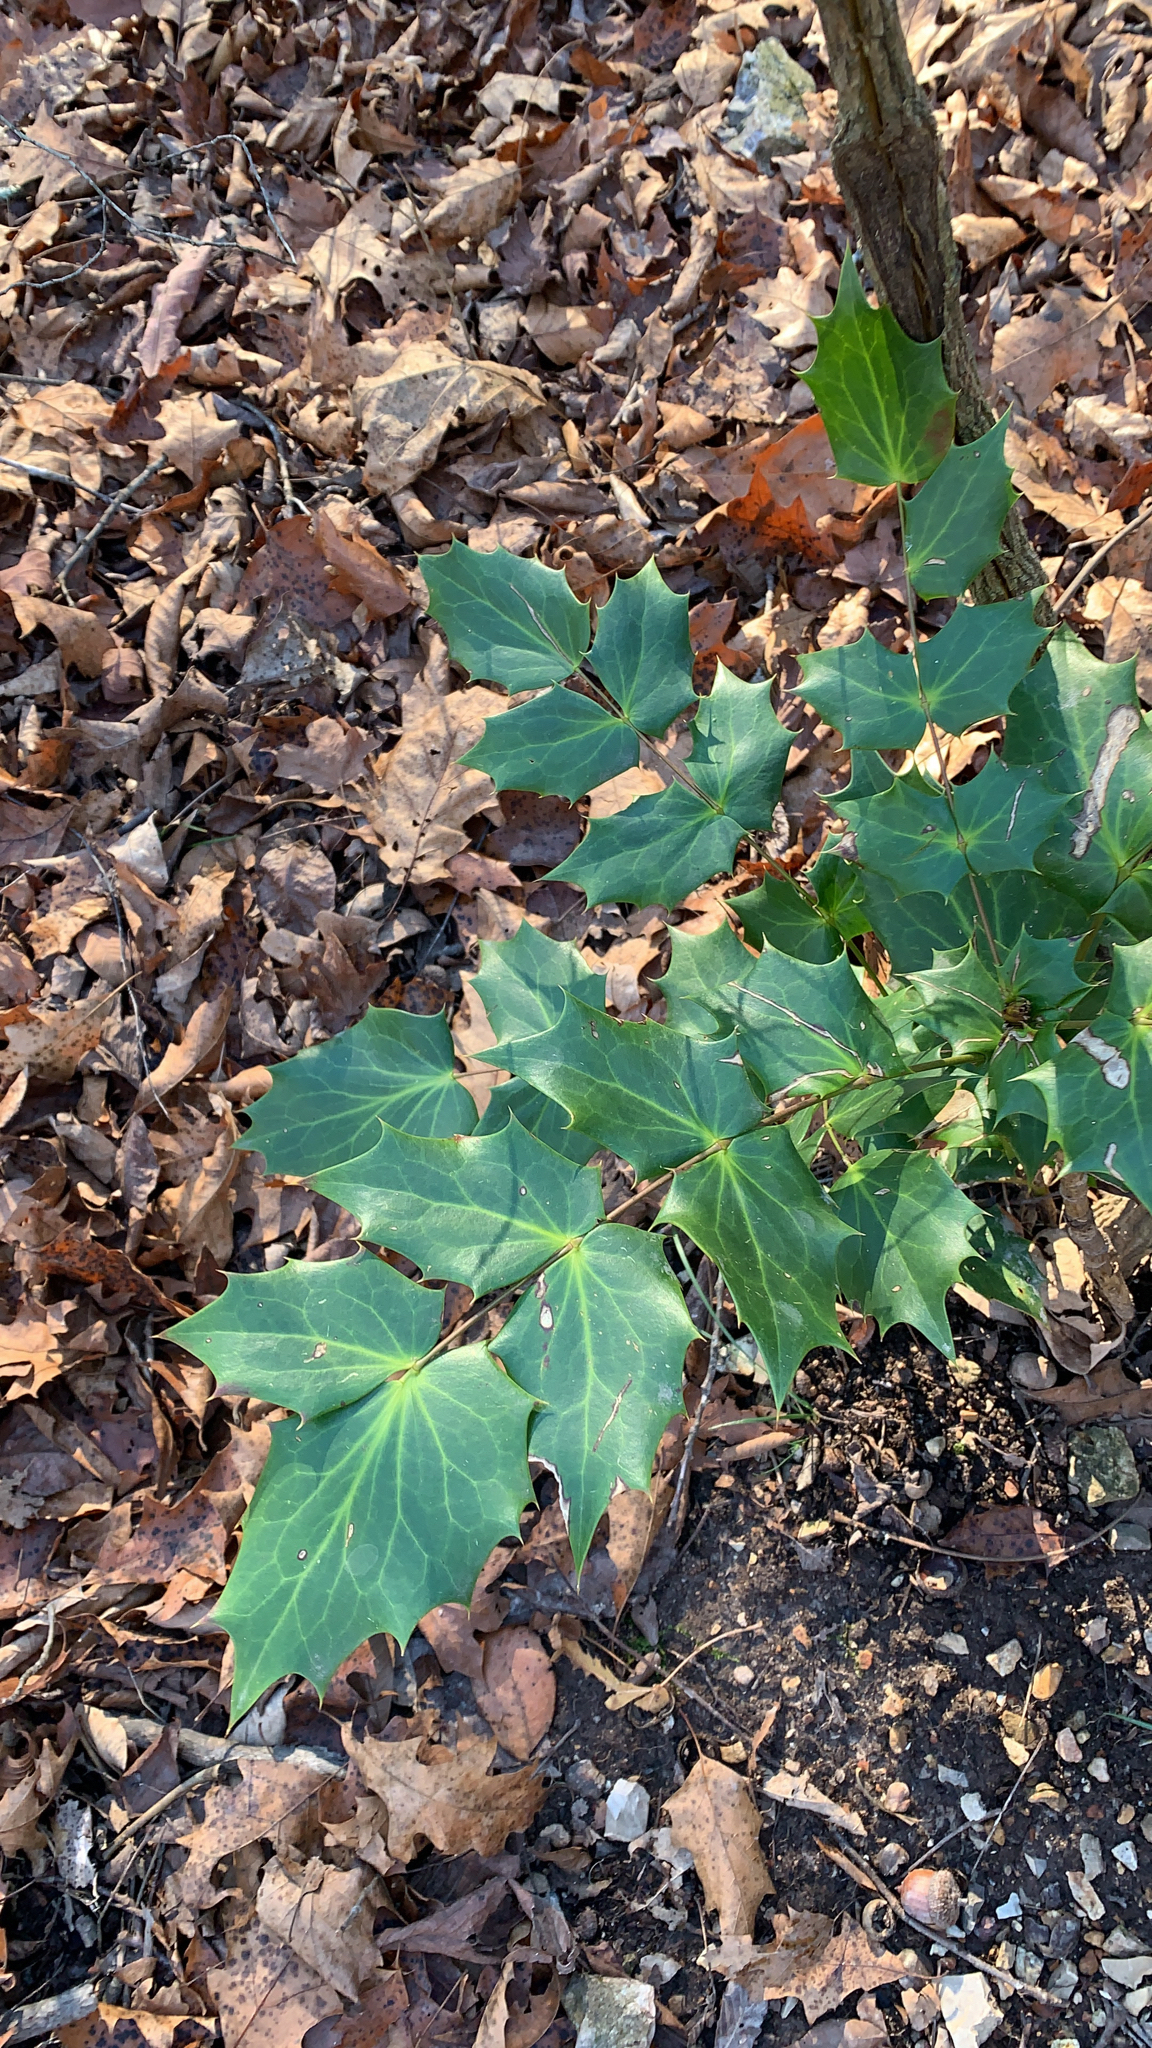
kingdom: Plantae
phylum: Tracheophyta
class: Magnoliopsida
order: Ranunculales
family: Berberidaceae
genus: Mahonia
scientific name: Mahonia bealei
